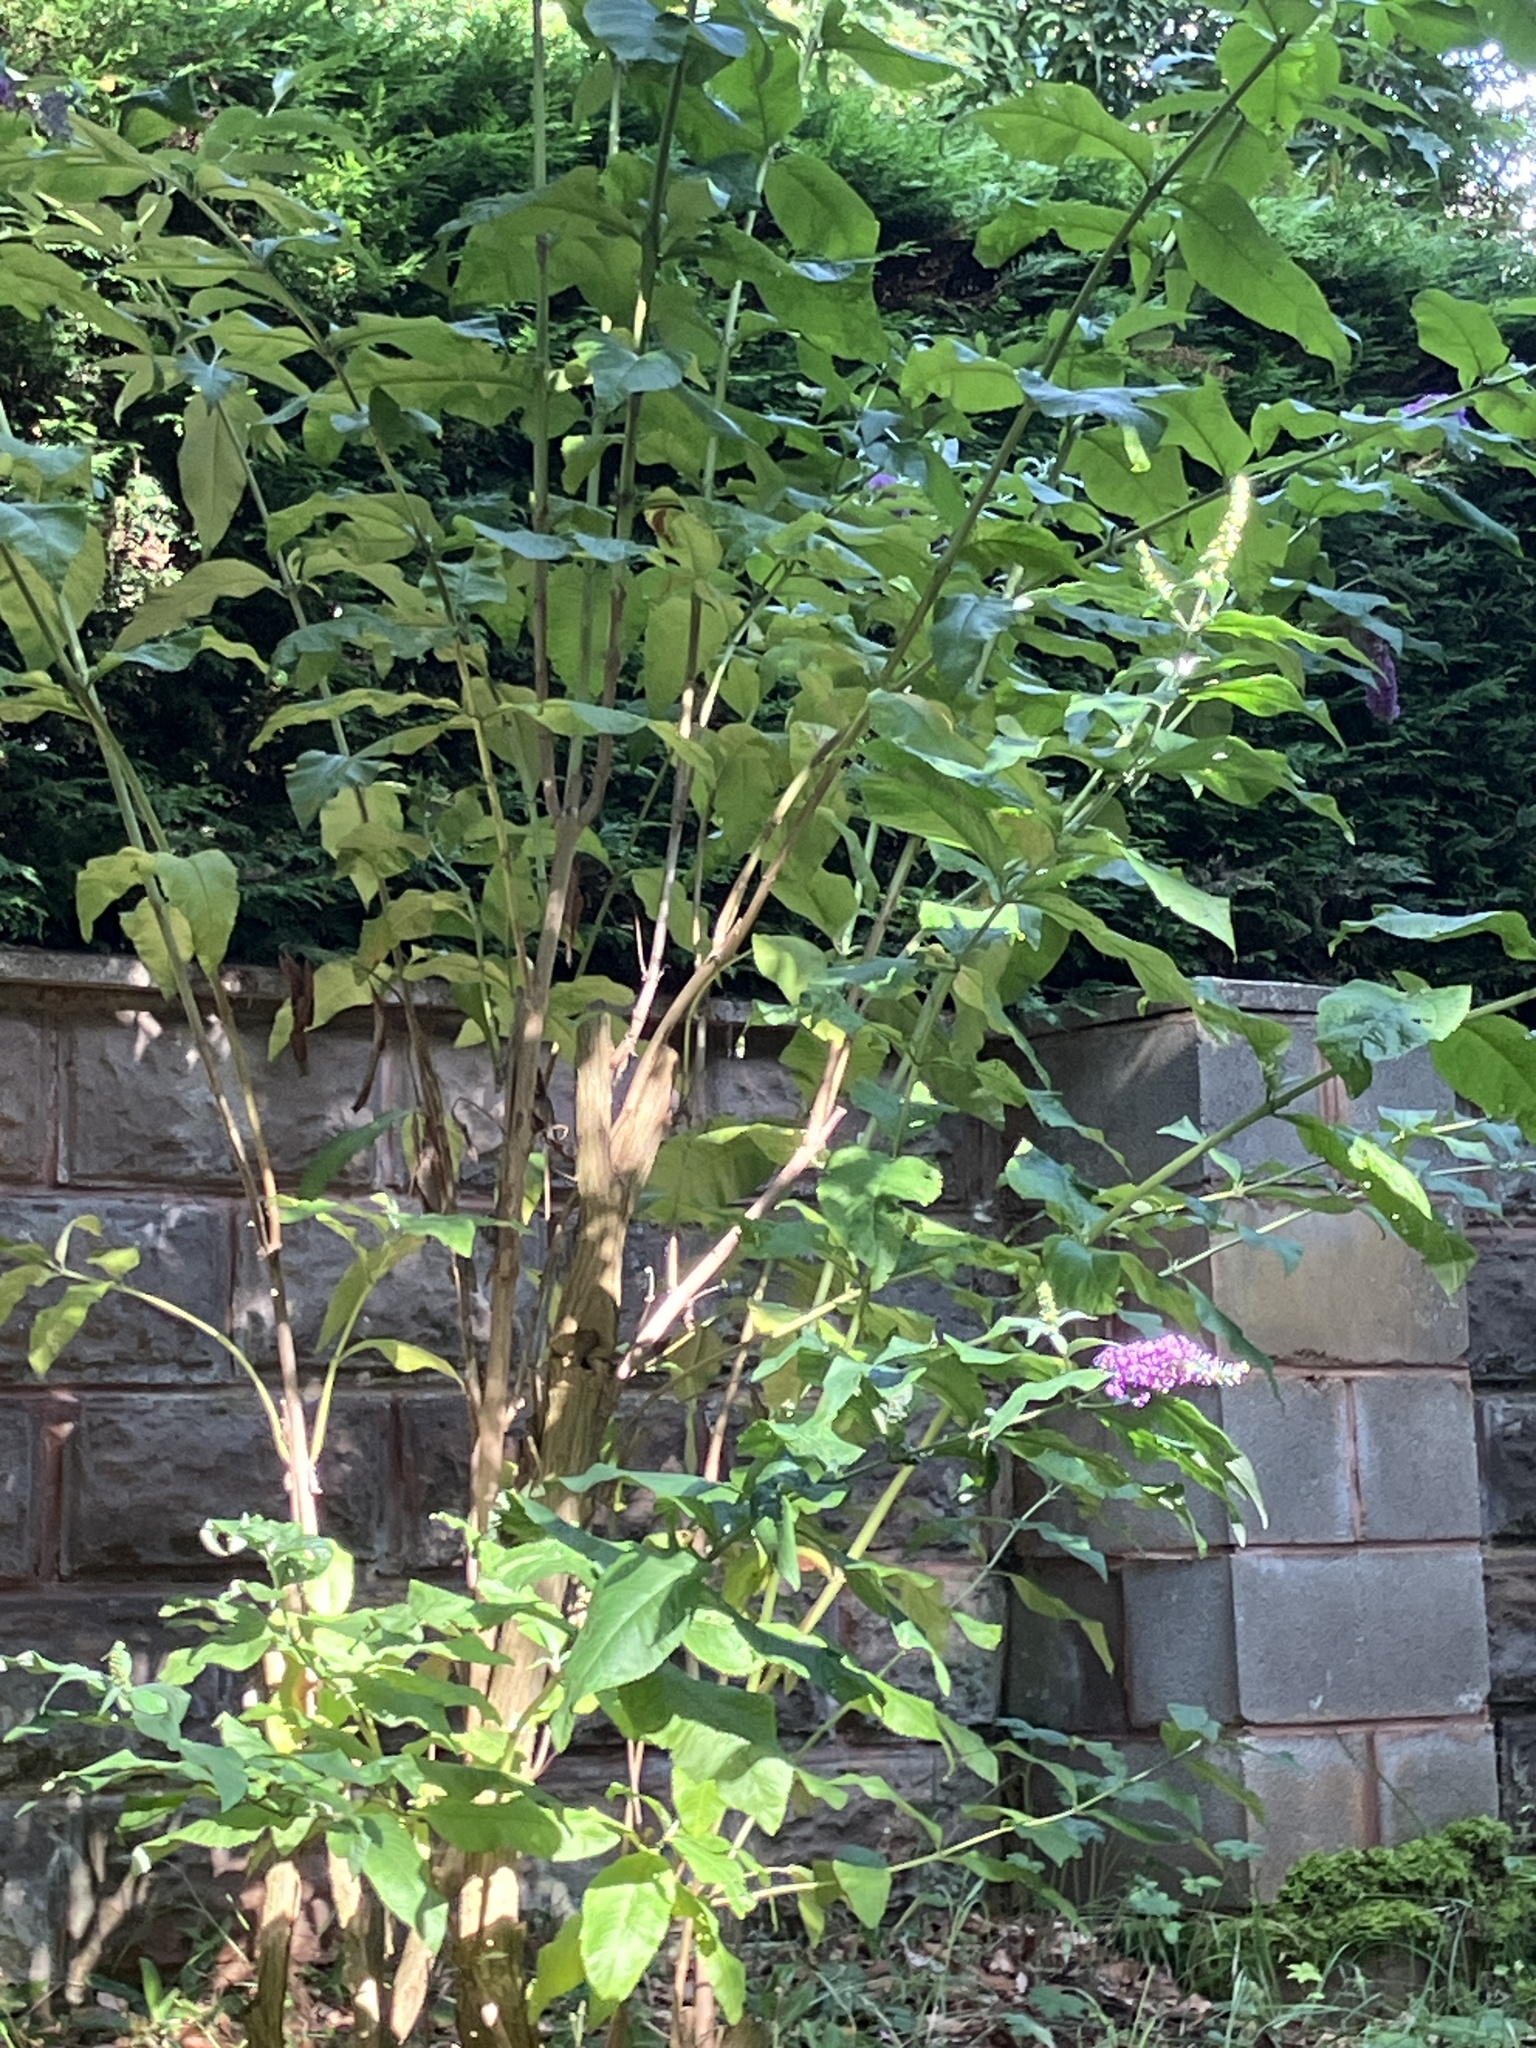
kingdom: Plantae
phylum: Tracheophyta
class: Magnoliopsida
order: Lamiales
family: Scrophulariaceae
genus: Buddleja
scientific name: Buddleja davidii
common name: Butterfly-bush
